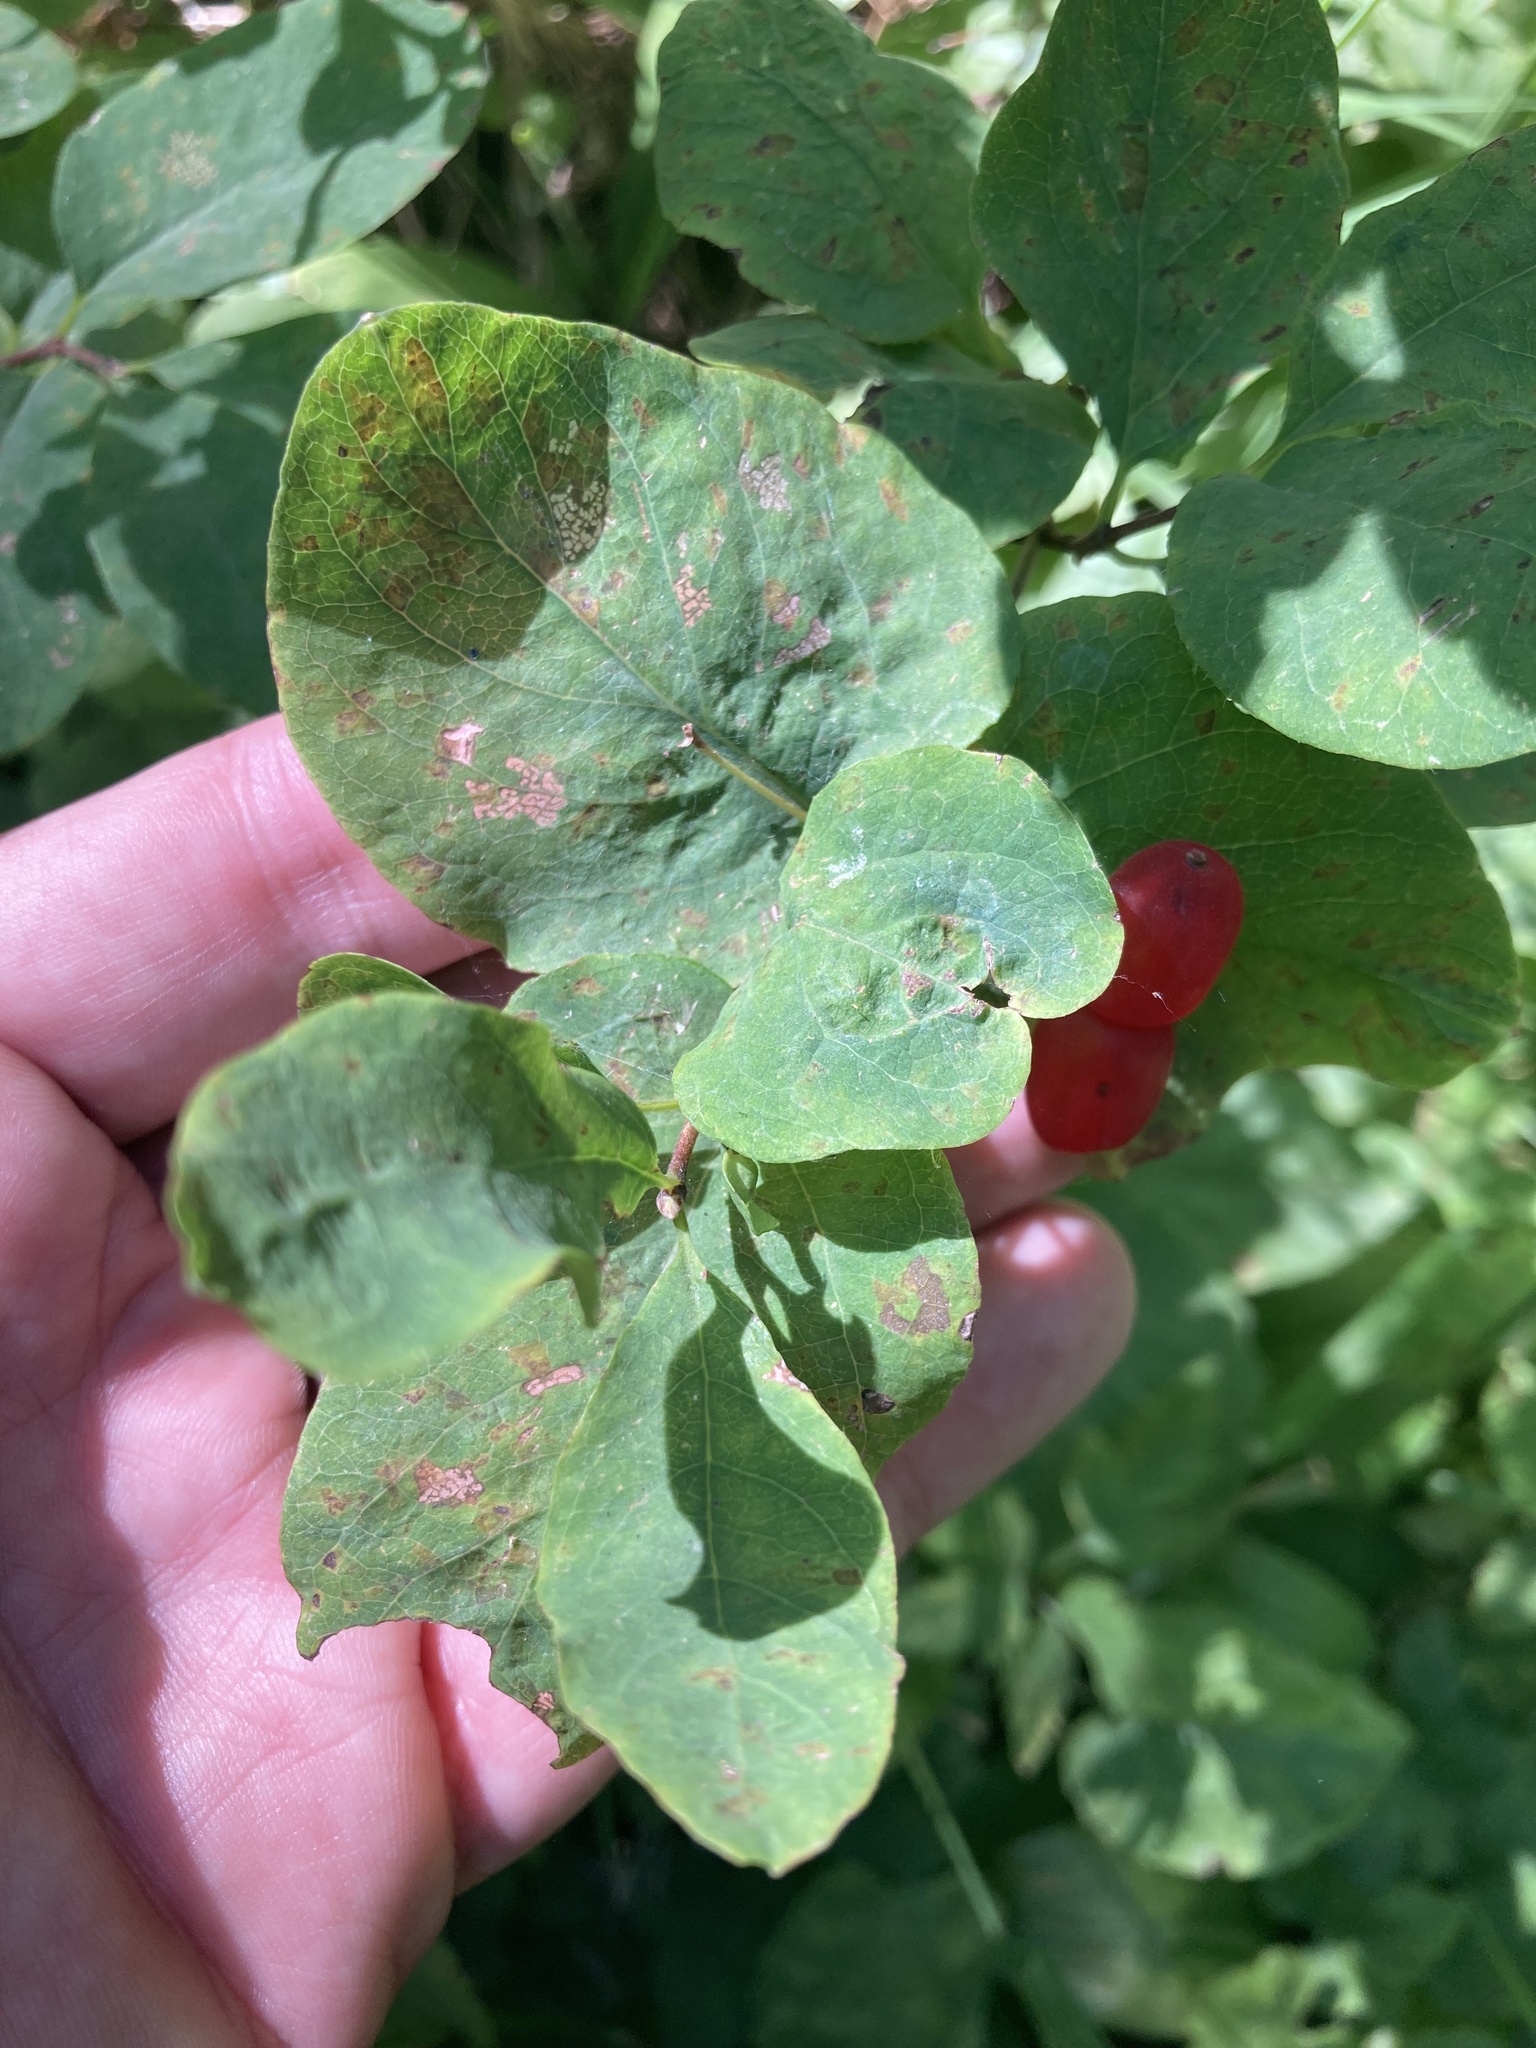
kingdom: Plantae
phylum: Tracheophyta
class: Magnoliopsida
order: Dipsacales
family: Caprifoliaceae
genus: Lonicera
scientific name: Lonicera utahensis
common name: Utah honeysuckle
